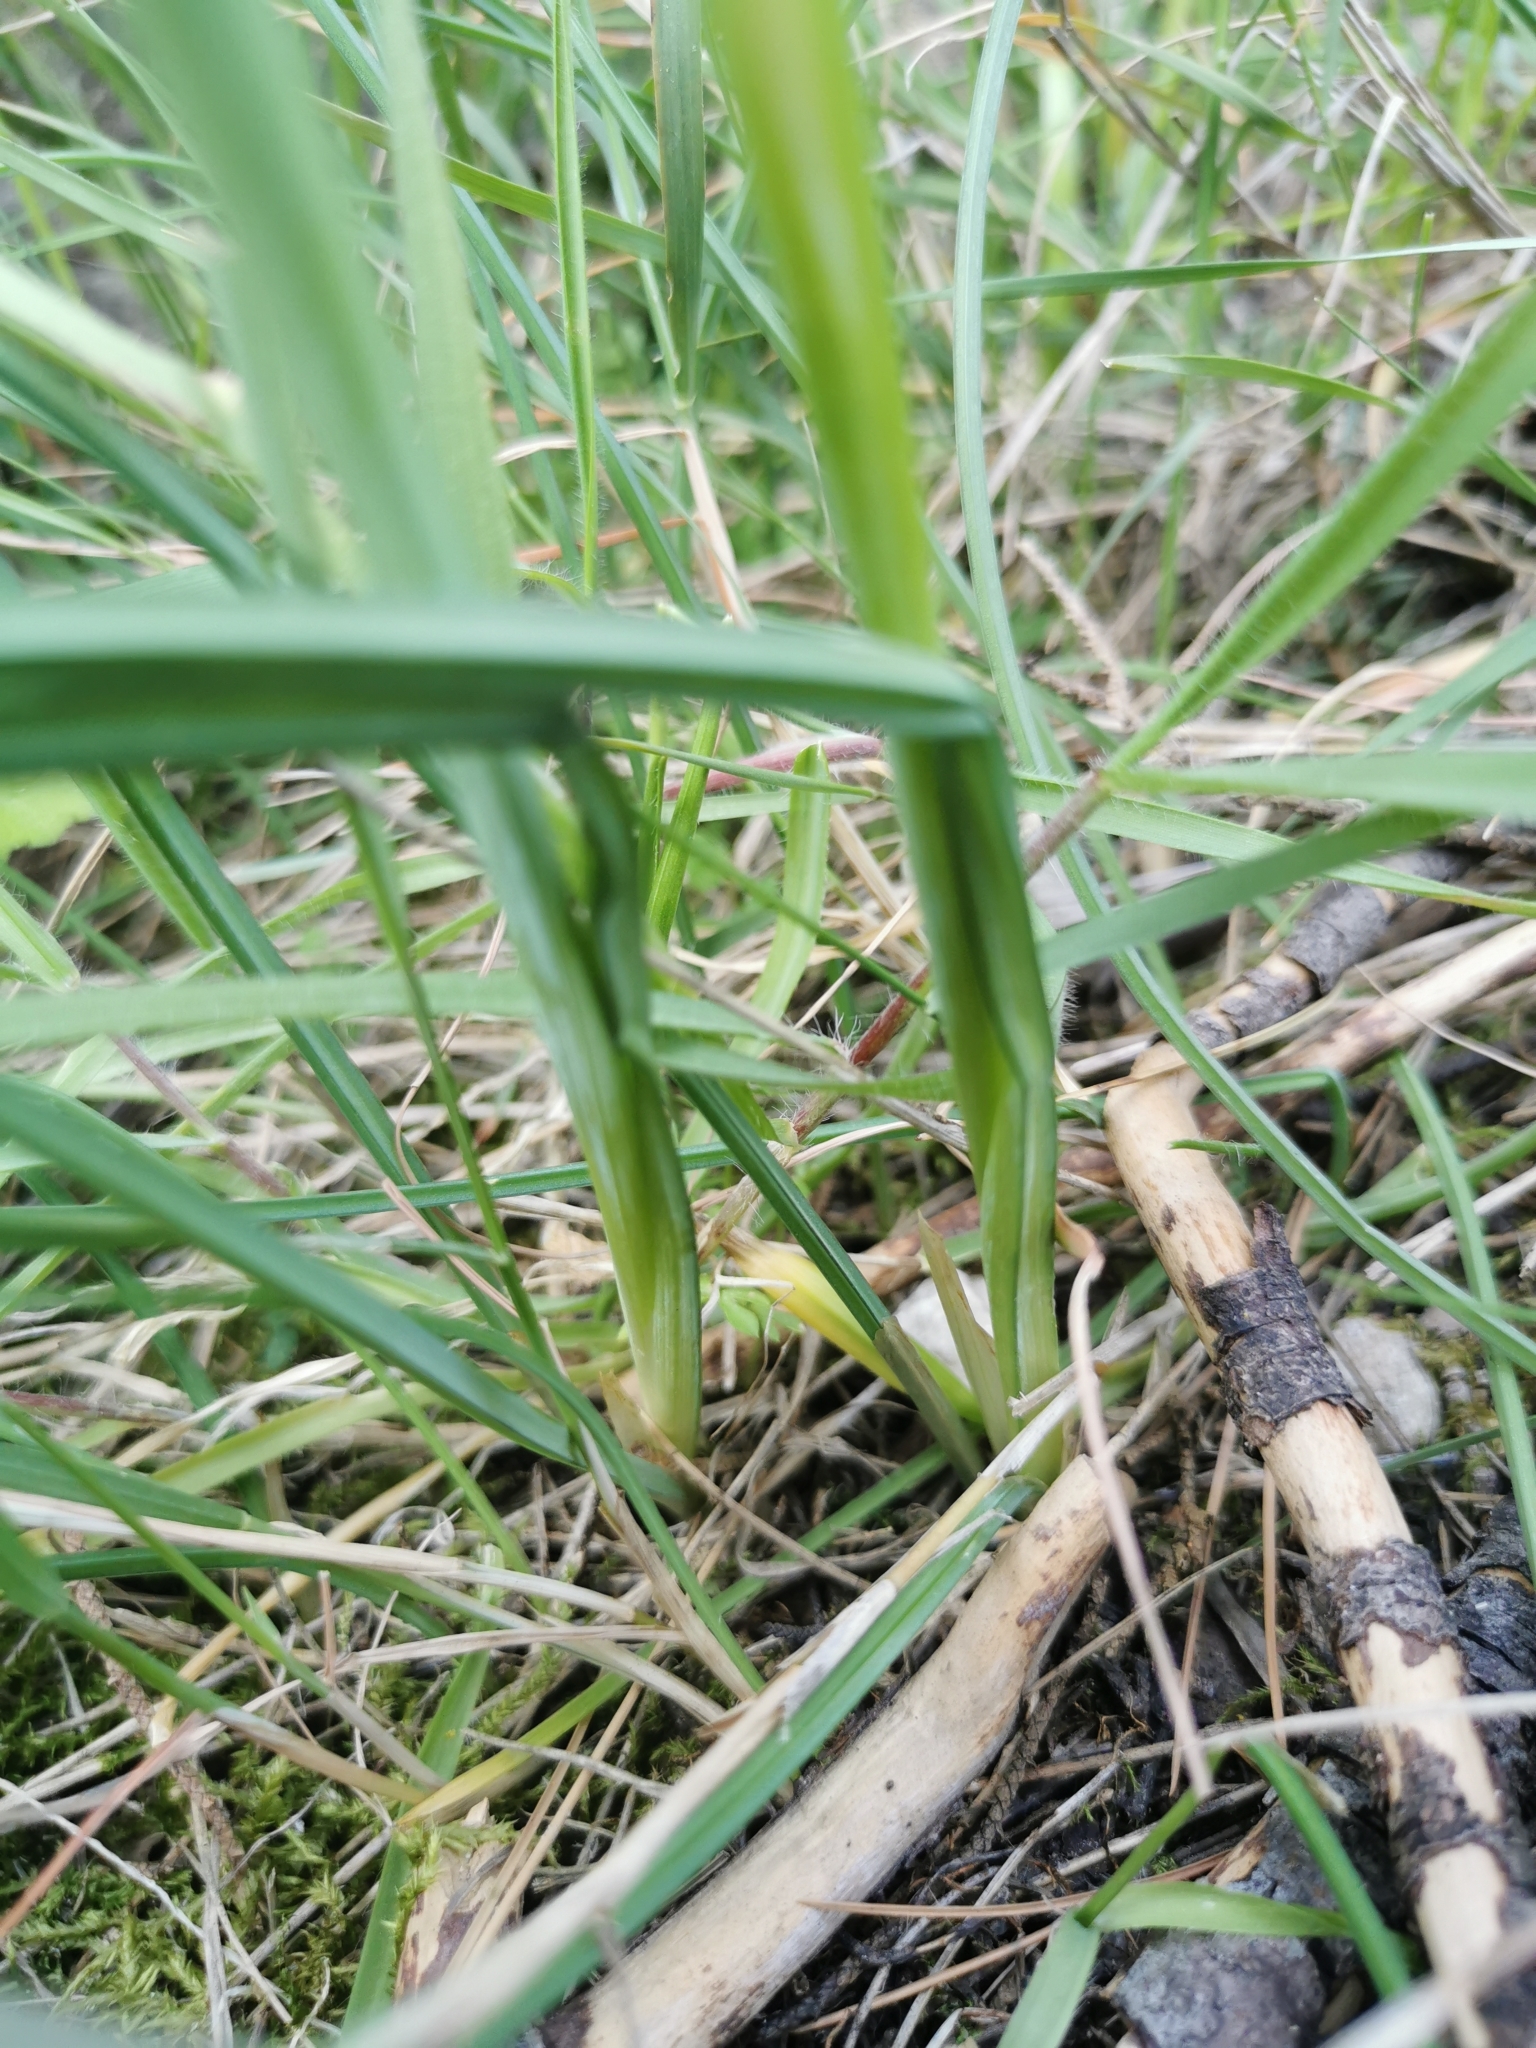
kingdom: Plantae
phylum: Tracheophyta
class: Liliopsida
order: Asparagales
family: Iridaceae
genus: Iris
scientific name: Iris tuberosa
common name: Snake's-head iris
